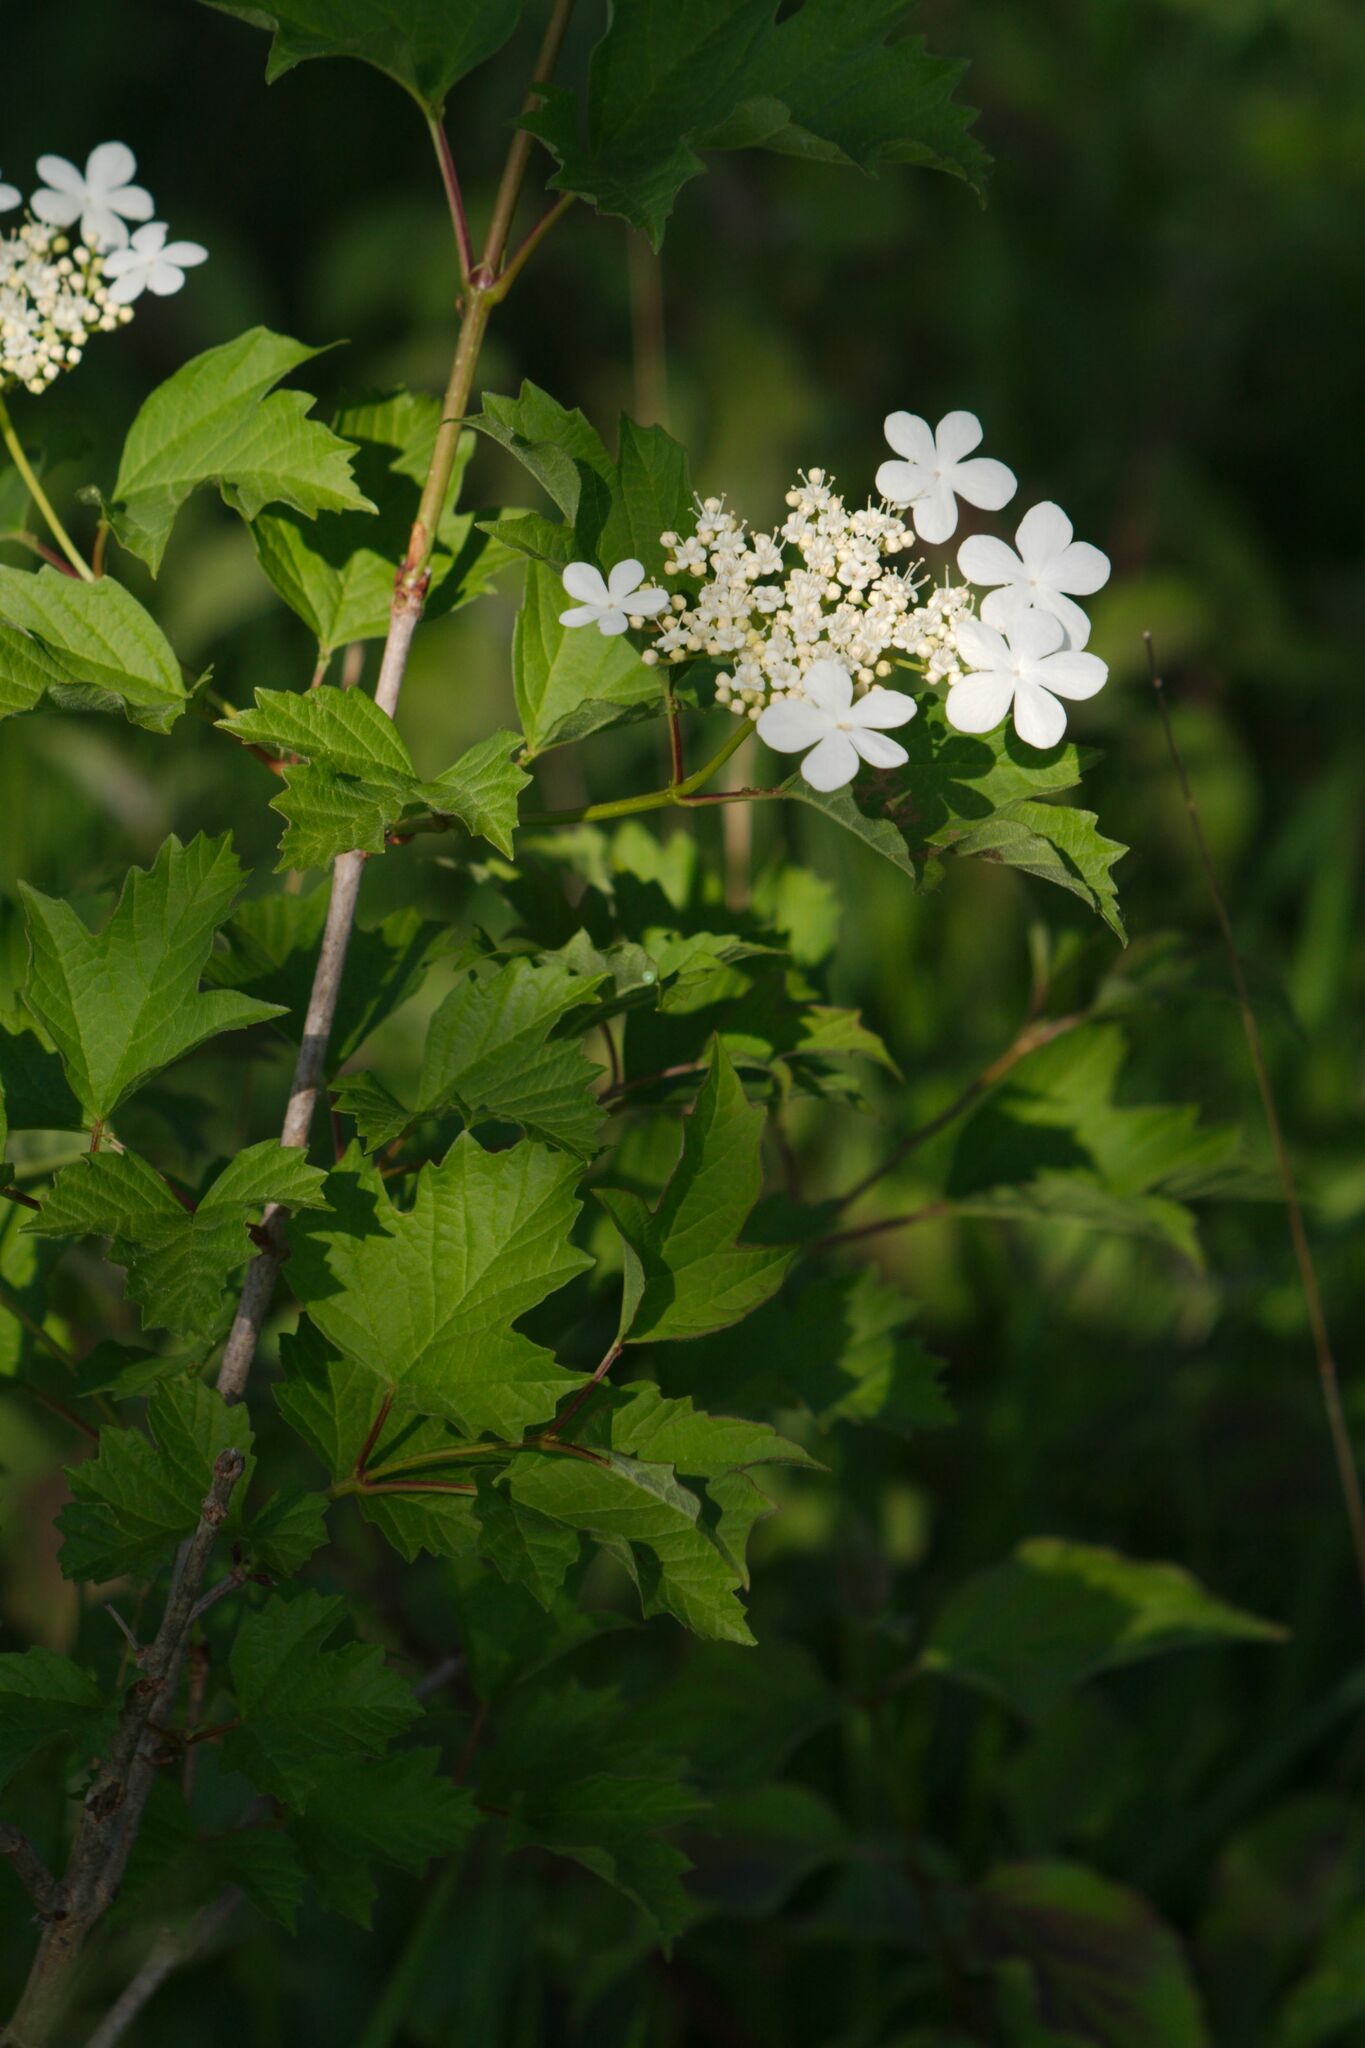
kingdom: Plantae
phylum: Tracheophyta
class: Magnoliopsida
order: Dipsacales
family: Viburnaceae
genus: Viburnum
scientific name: Viburnum opulus
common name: Guelder-rose
